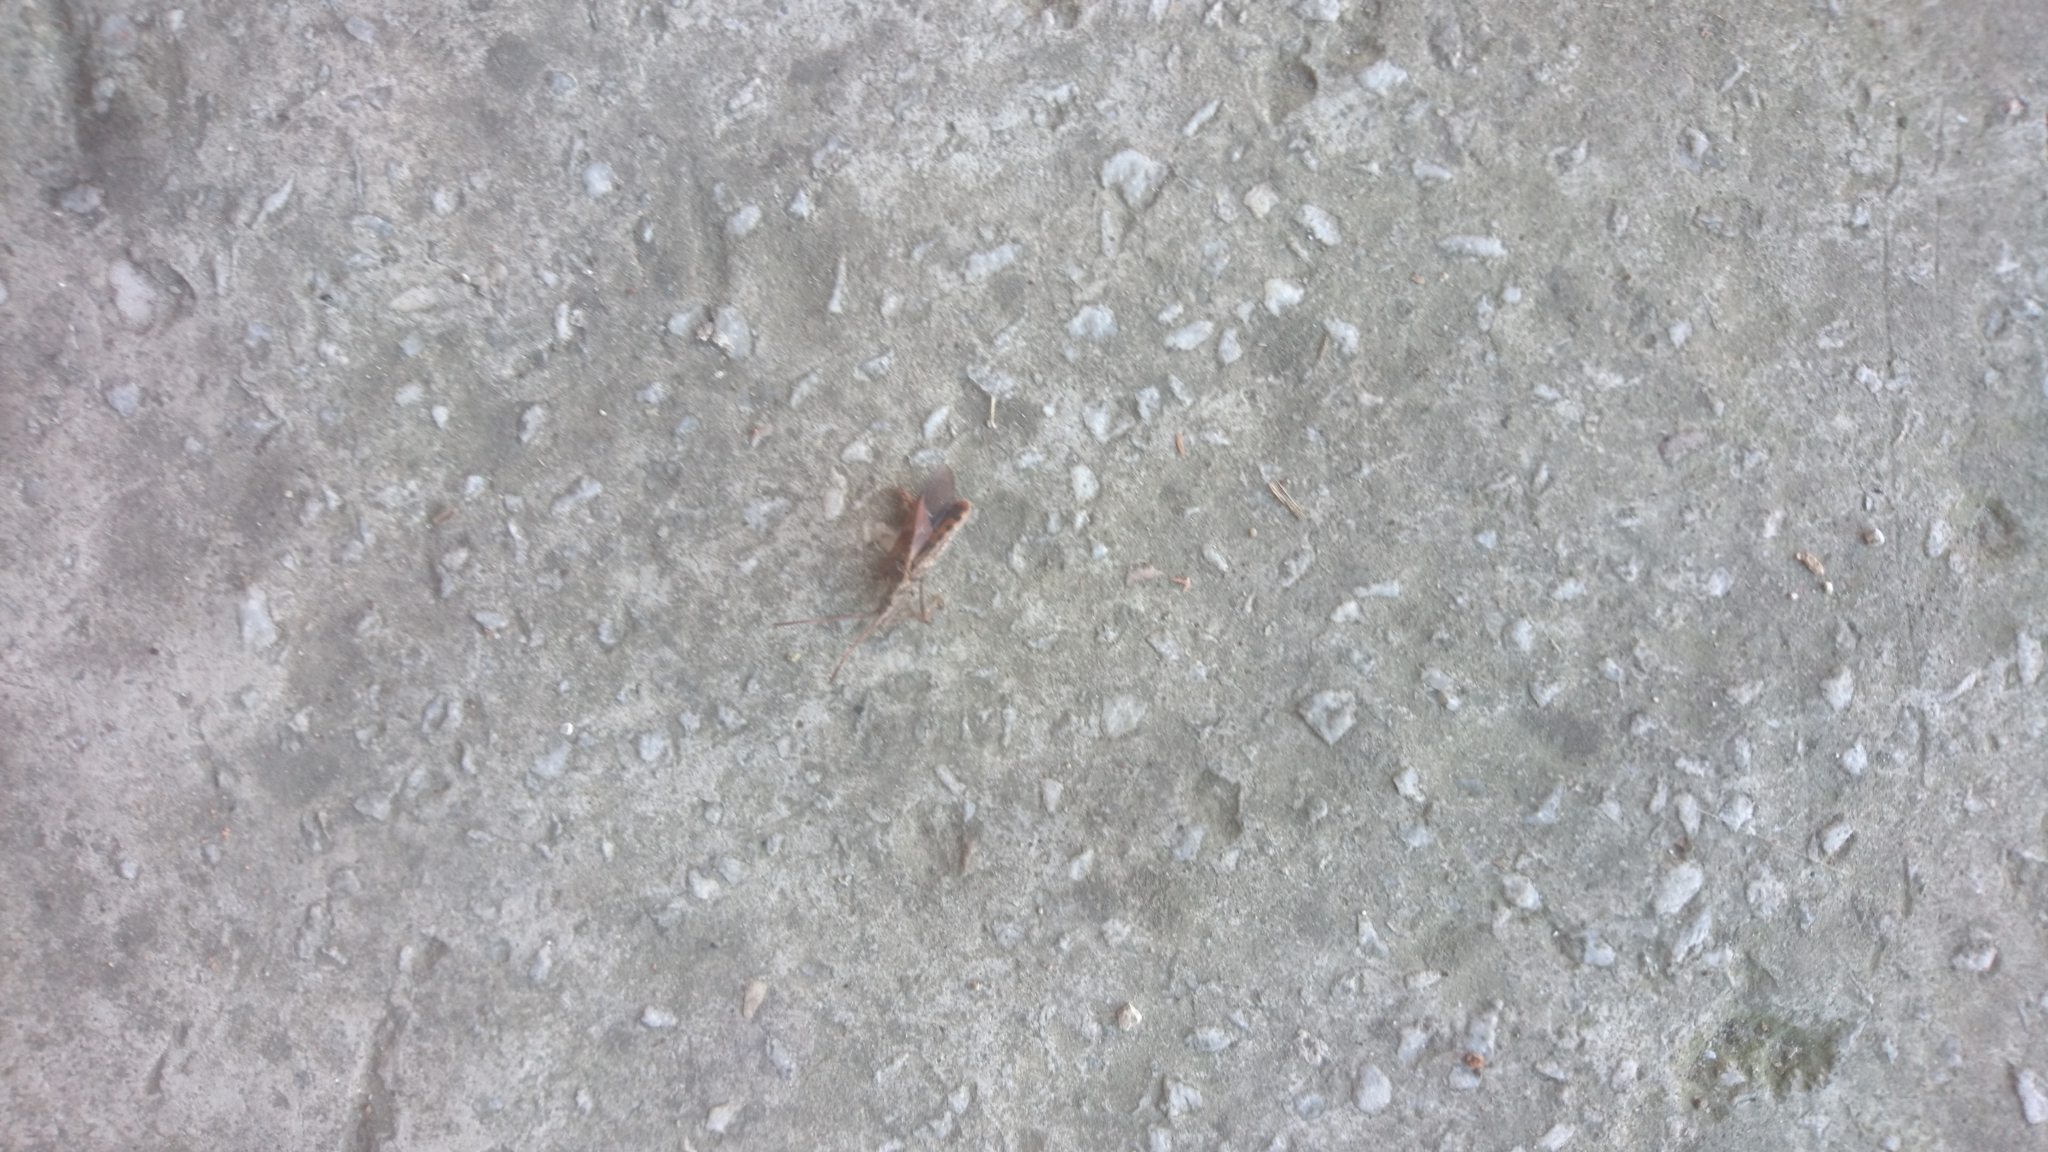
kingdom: Animalia
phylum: Arthropoda
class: Insecta
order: Hemiptera
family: Coreidae
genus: Leptoglossus
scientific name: Leptoglossus occidentalis
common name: Western conifer-seed bug
